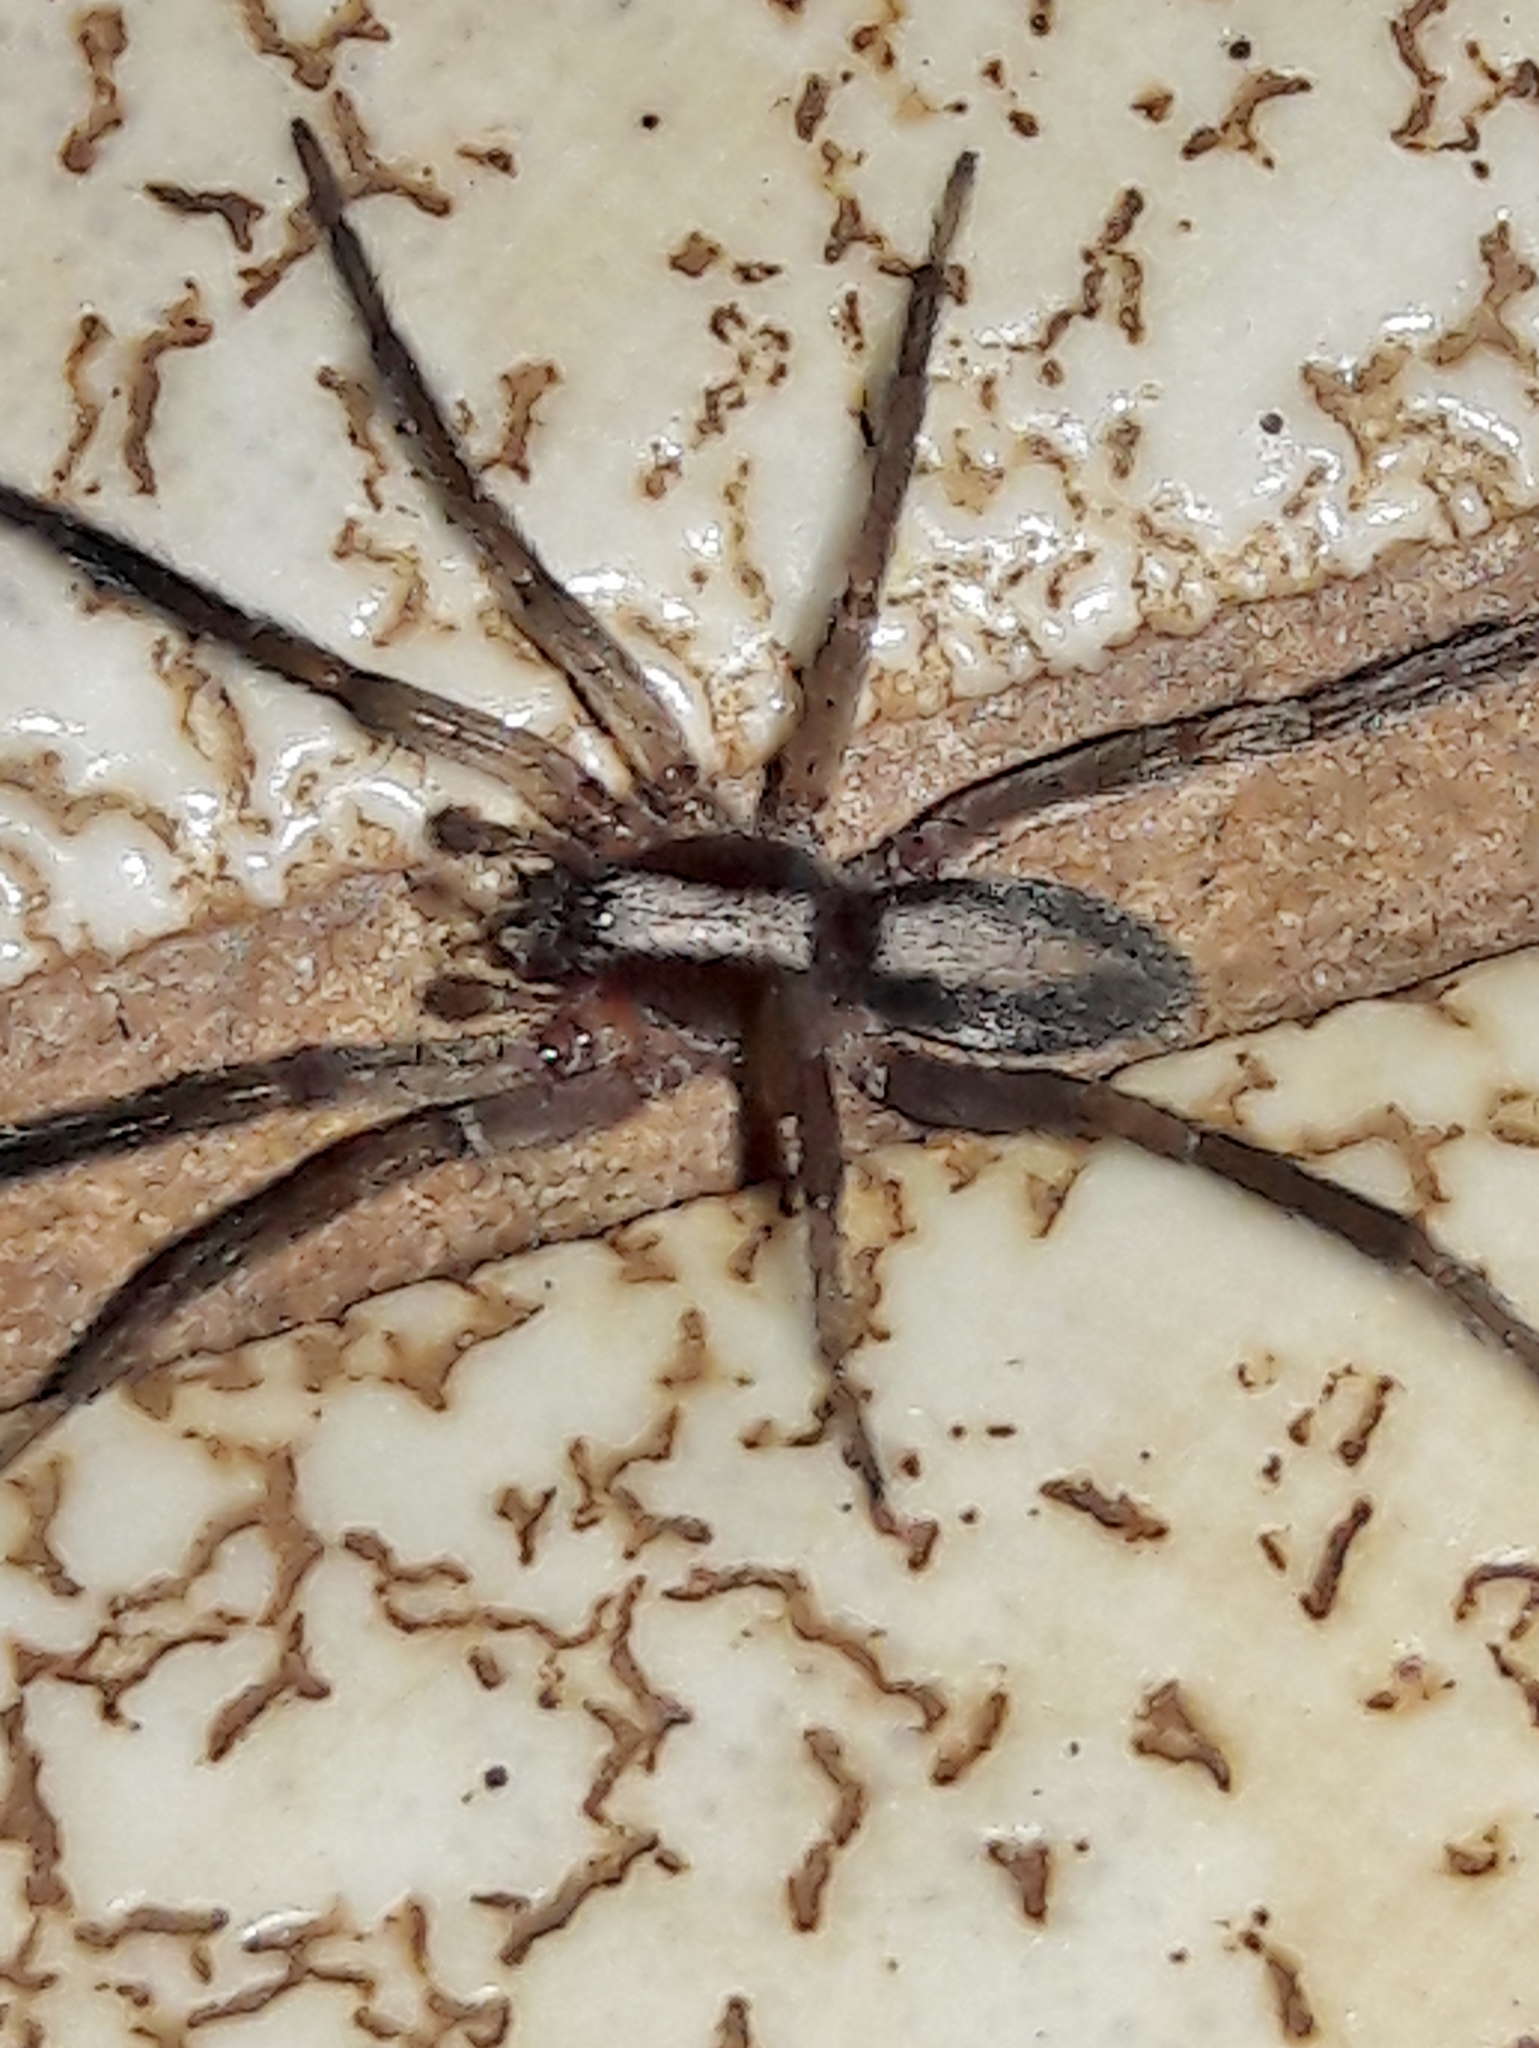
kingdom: Animalia
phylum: Arthropoda
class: Arachnida
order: Araneae
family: Miturgidae
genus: Teminius
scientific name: Teminius insularis
